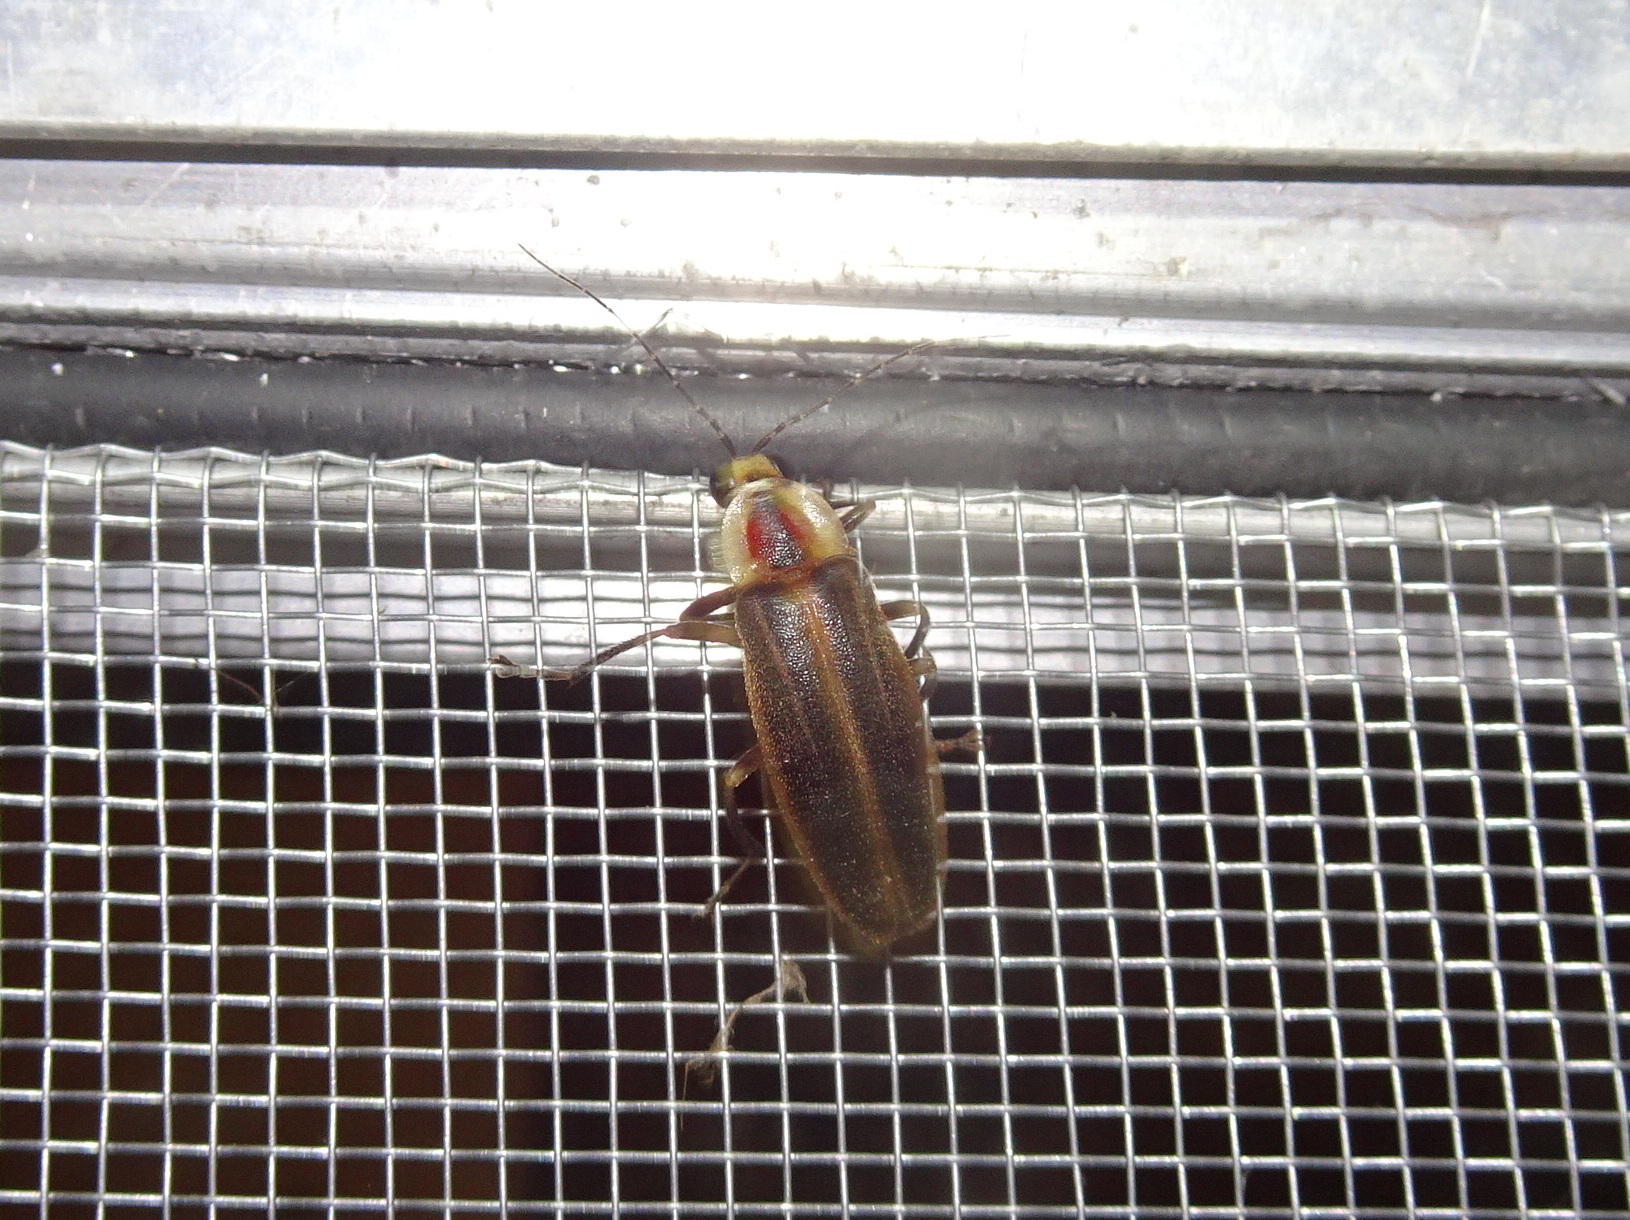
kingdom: Animalia
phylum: Arthropoda
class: Insecta
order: Coleoptera
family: Lampyridae
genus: Photuris
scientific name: Photuris
